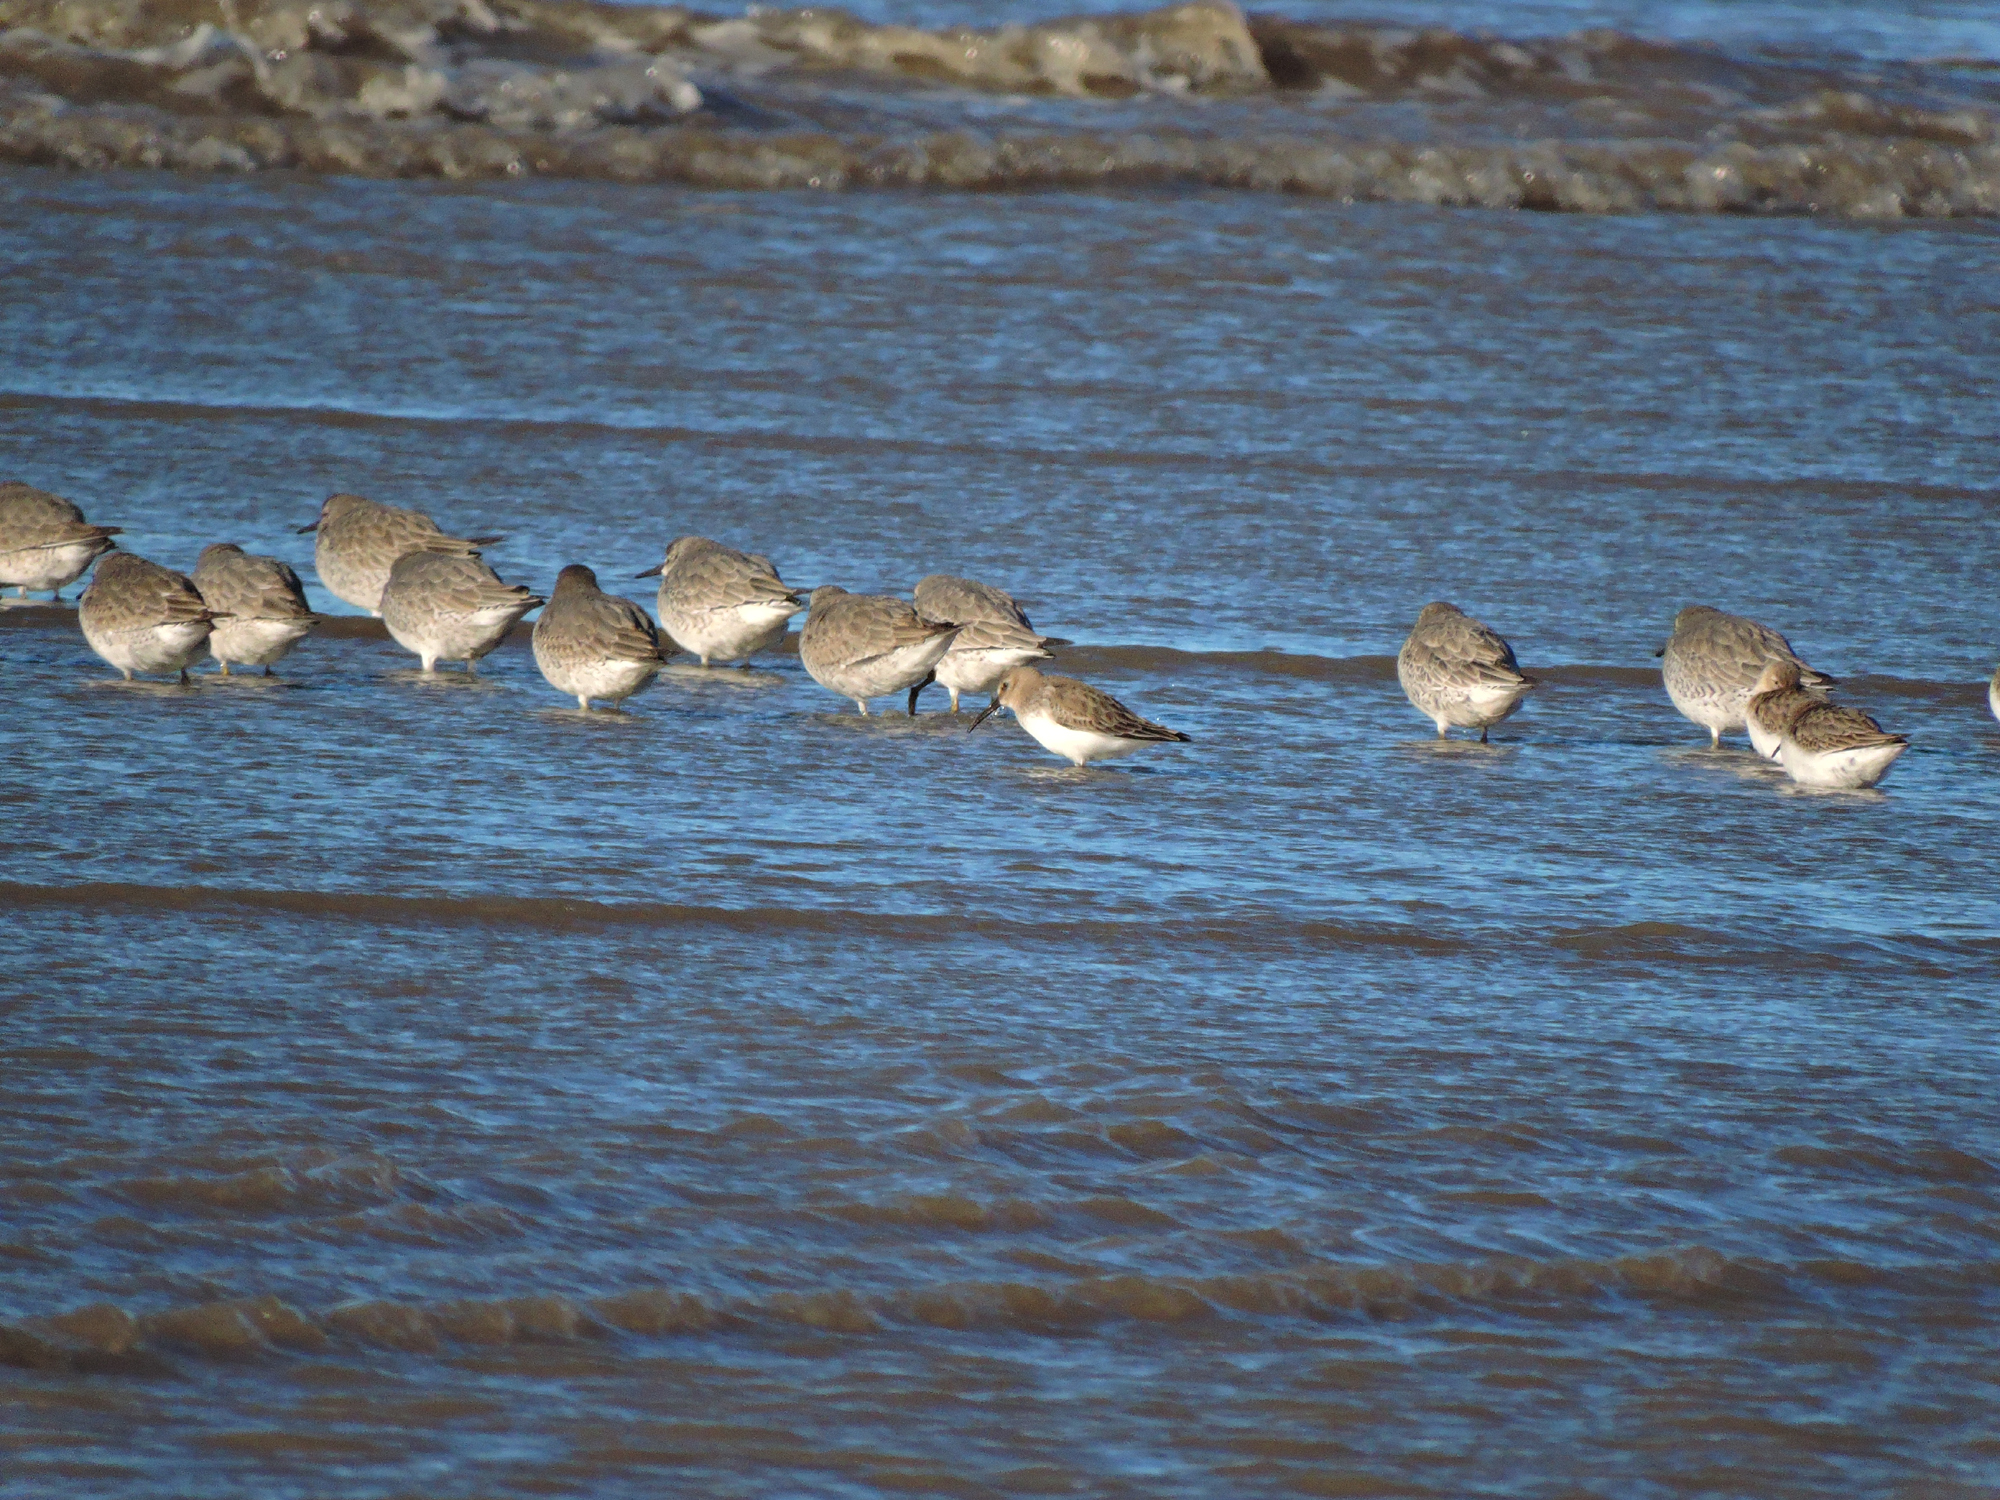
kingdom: Animalia
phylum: Chordata
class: Aves
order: Charadriiformes
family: Scolopacidae
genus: Calidris
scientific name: Calidris alpina
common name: Dunlin
